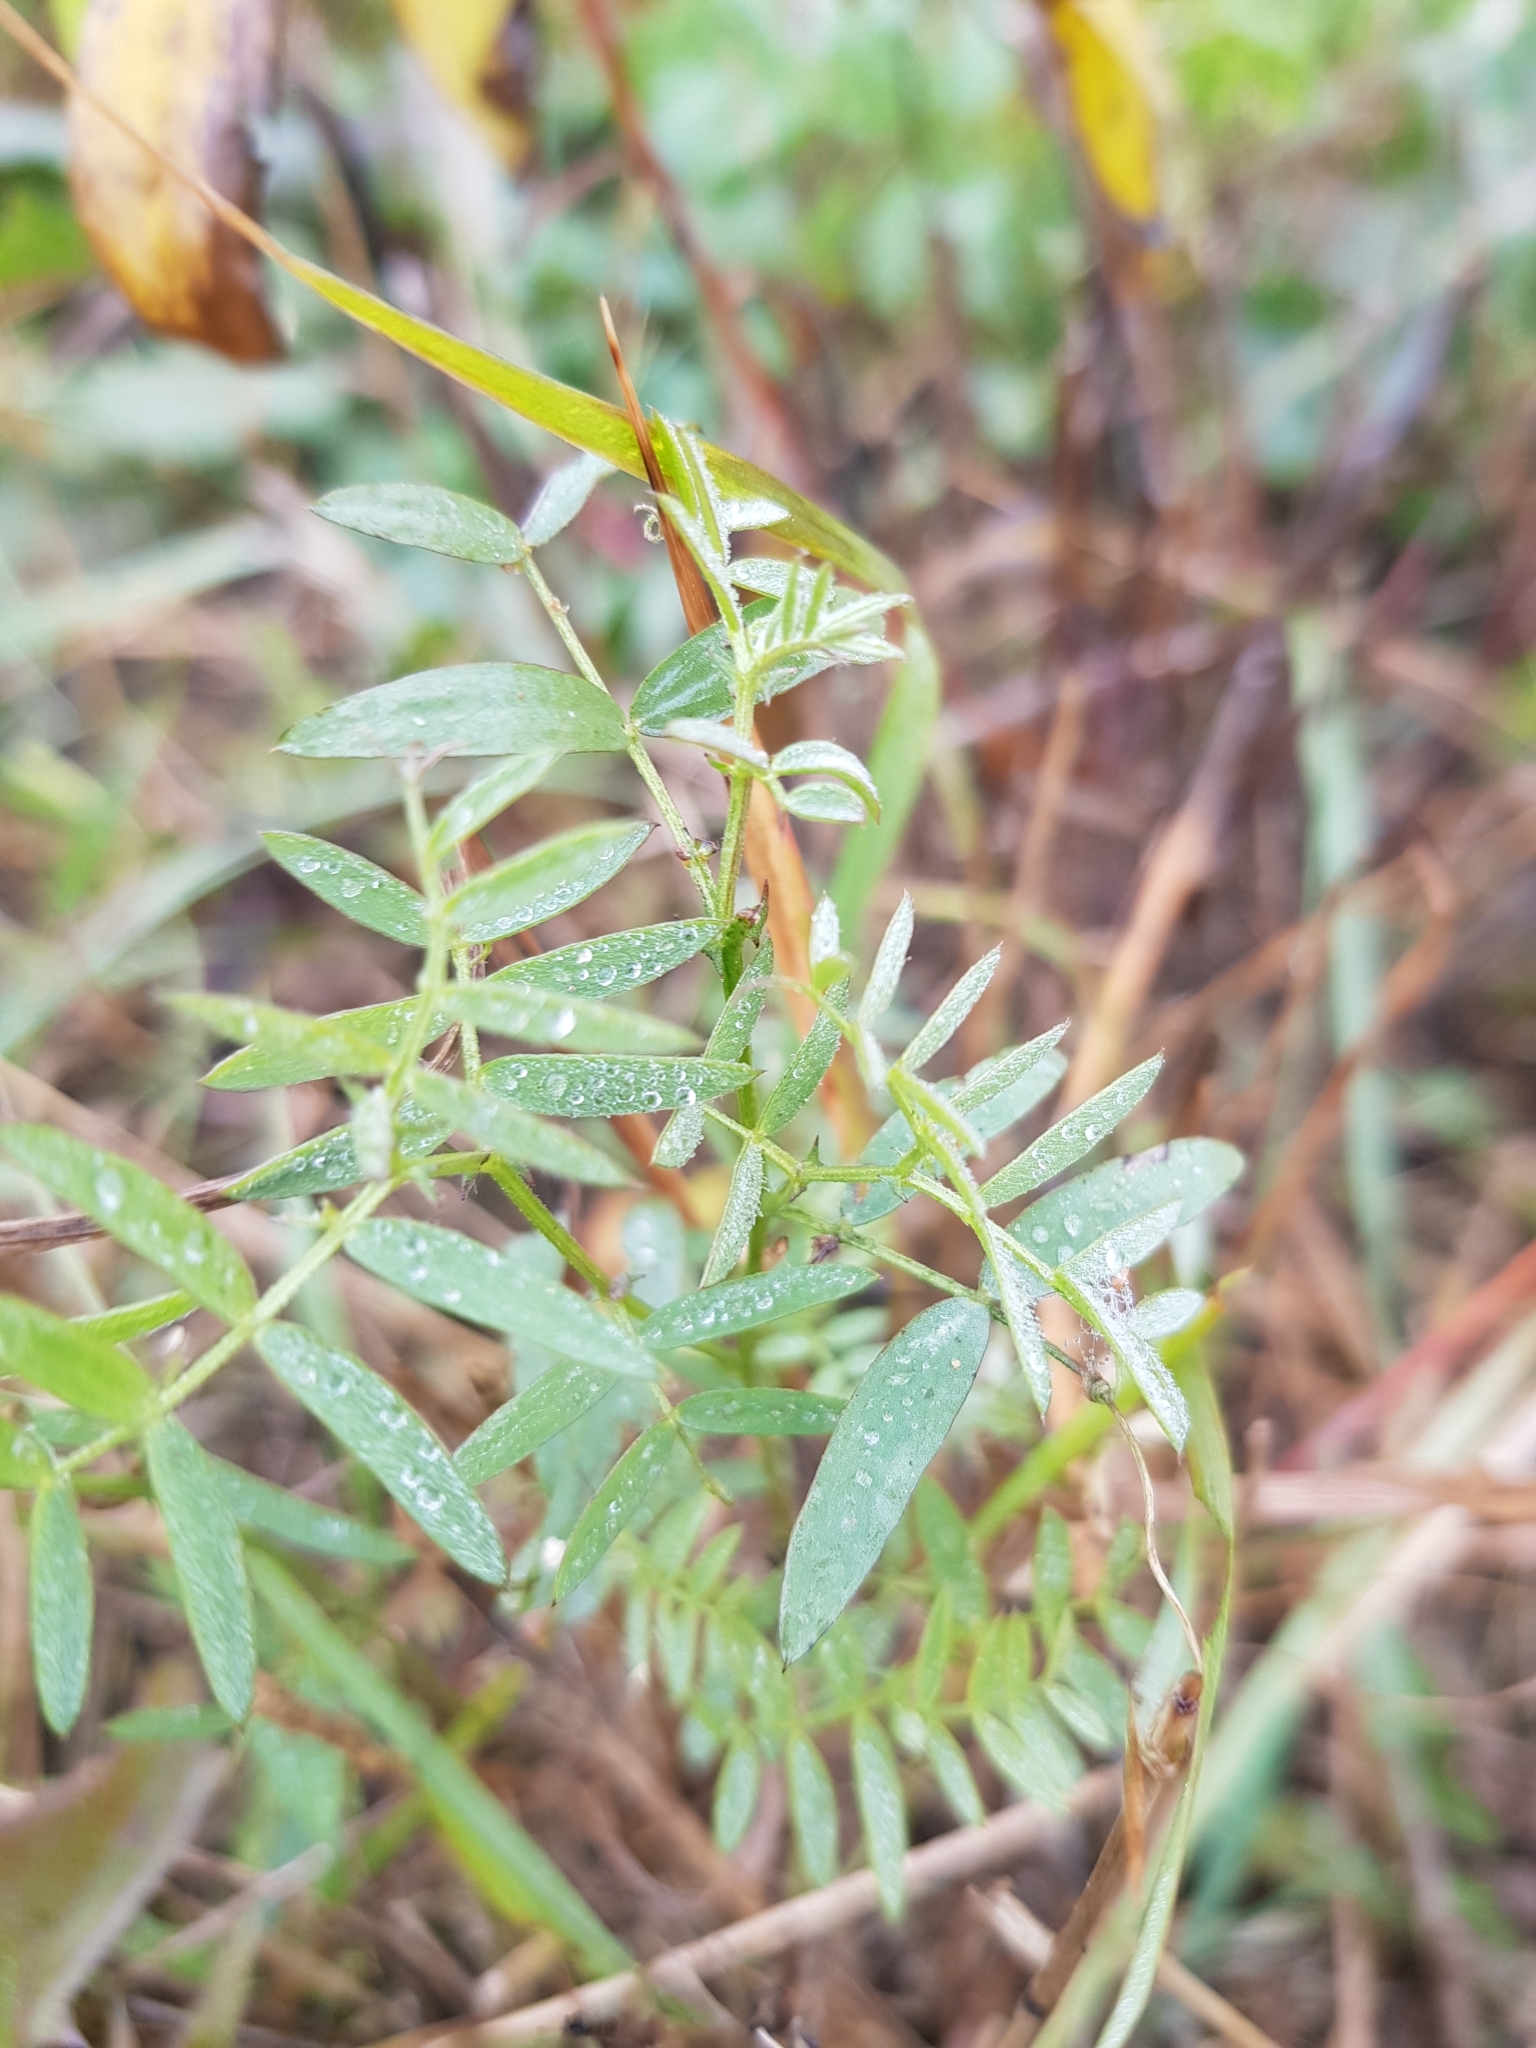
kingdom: Plantae
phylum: Tracheophyta
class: Magnoliopsida
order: Fabales
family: Fabaceae
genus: Vicia
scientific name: Vicia cracca
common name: Bird vetch
